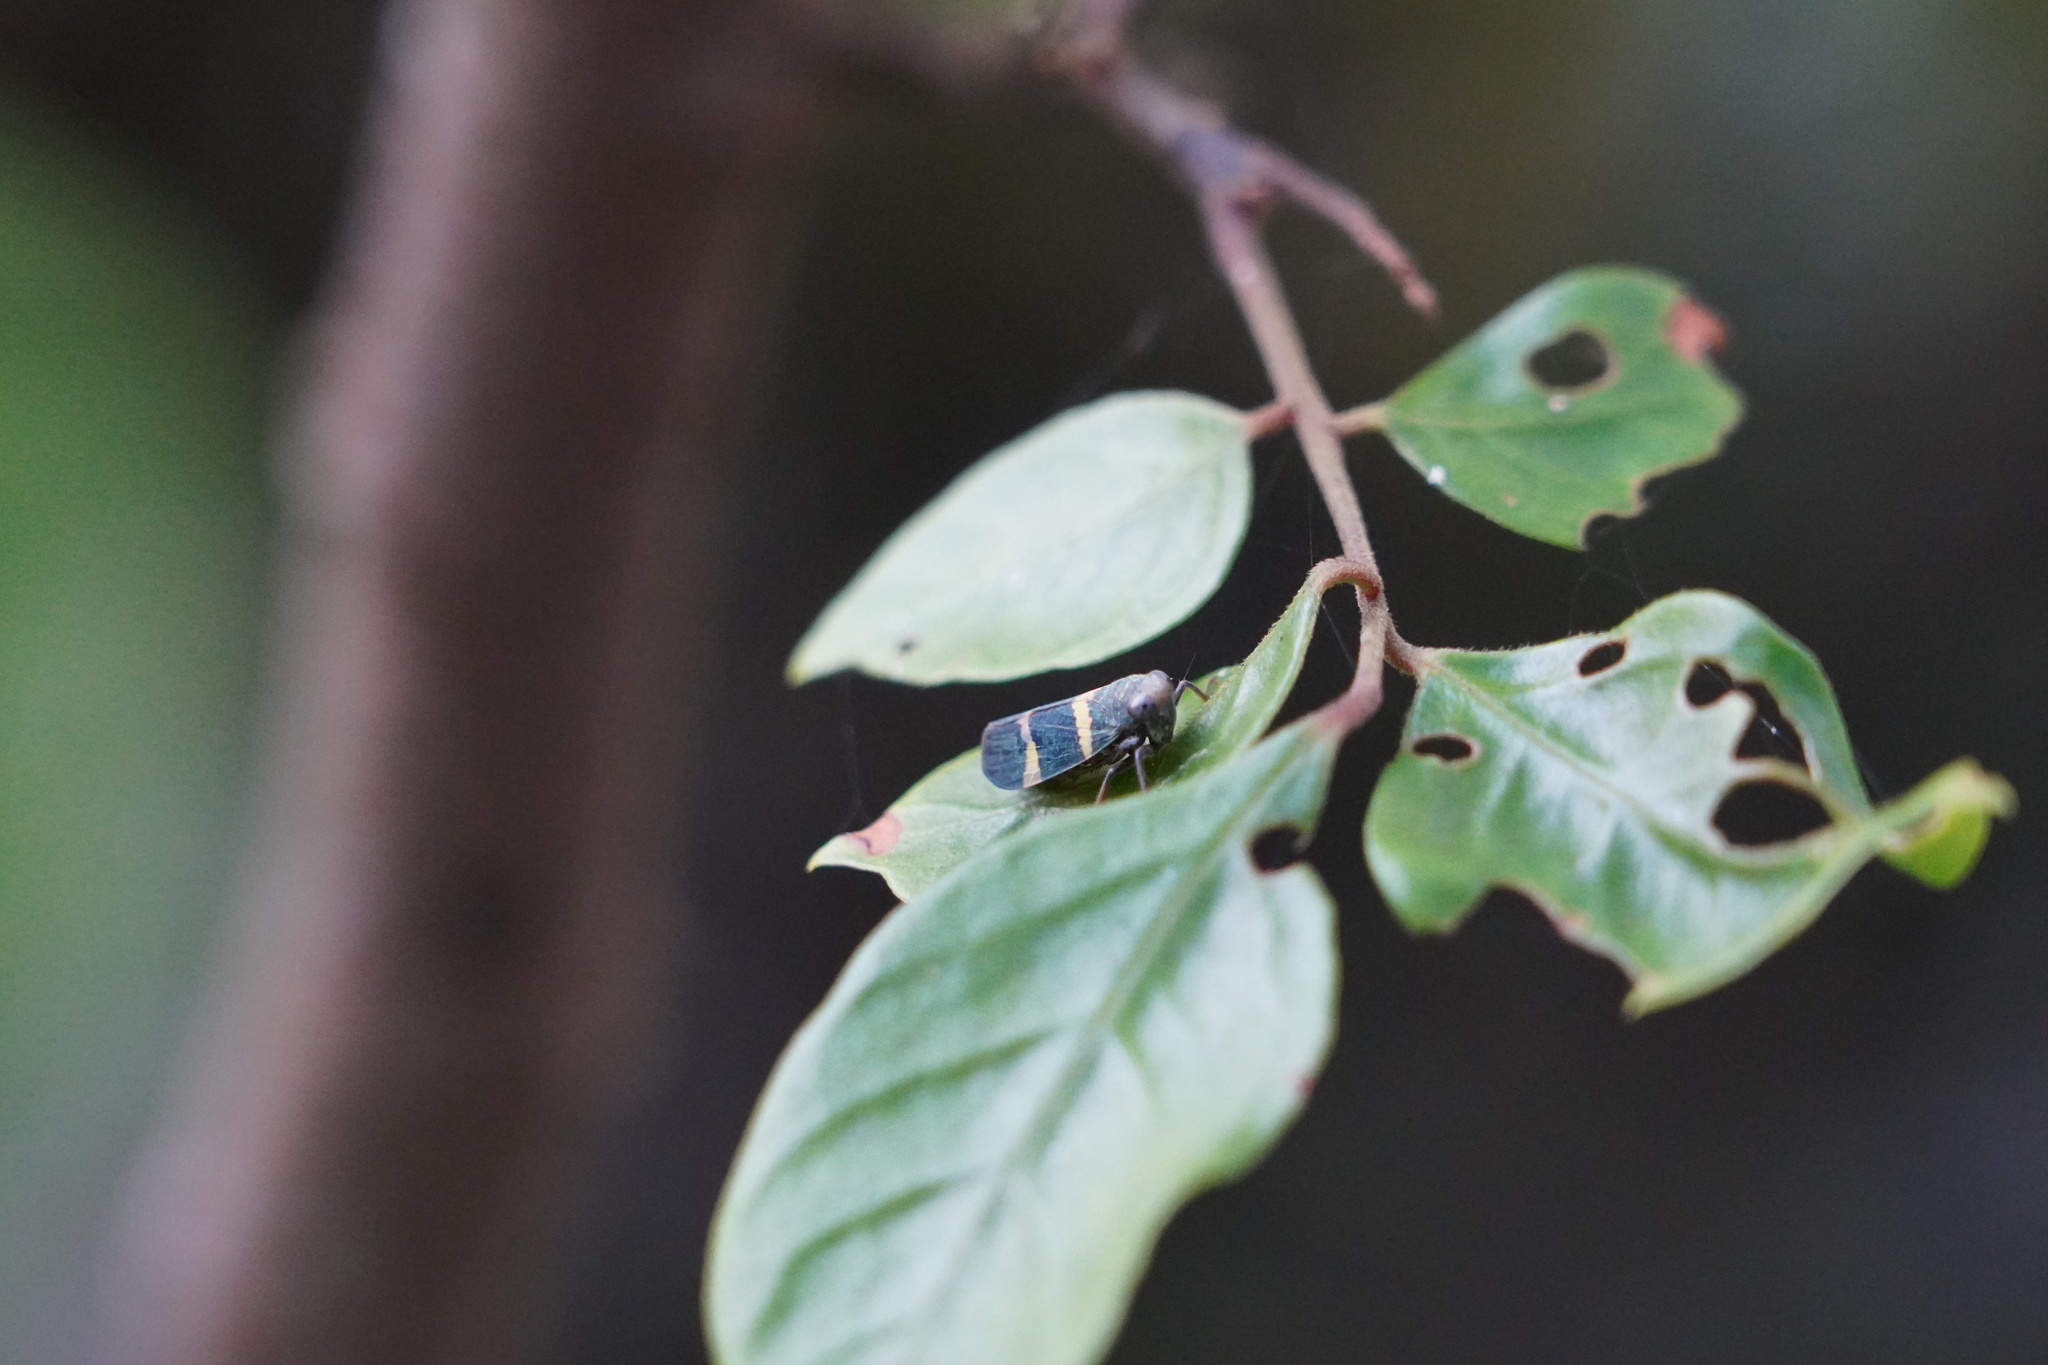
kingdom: Animalia
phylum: Arthropoda
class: Insecta
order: Hemiptera
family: Cicadellidae
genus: Olidiana
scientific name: Olidiana brevis
